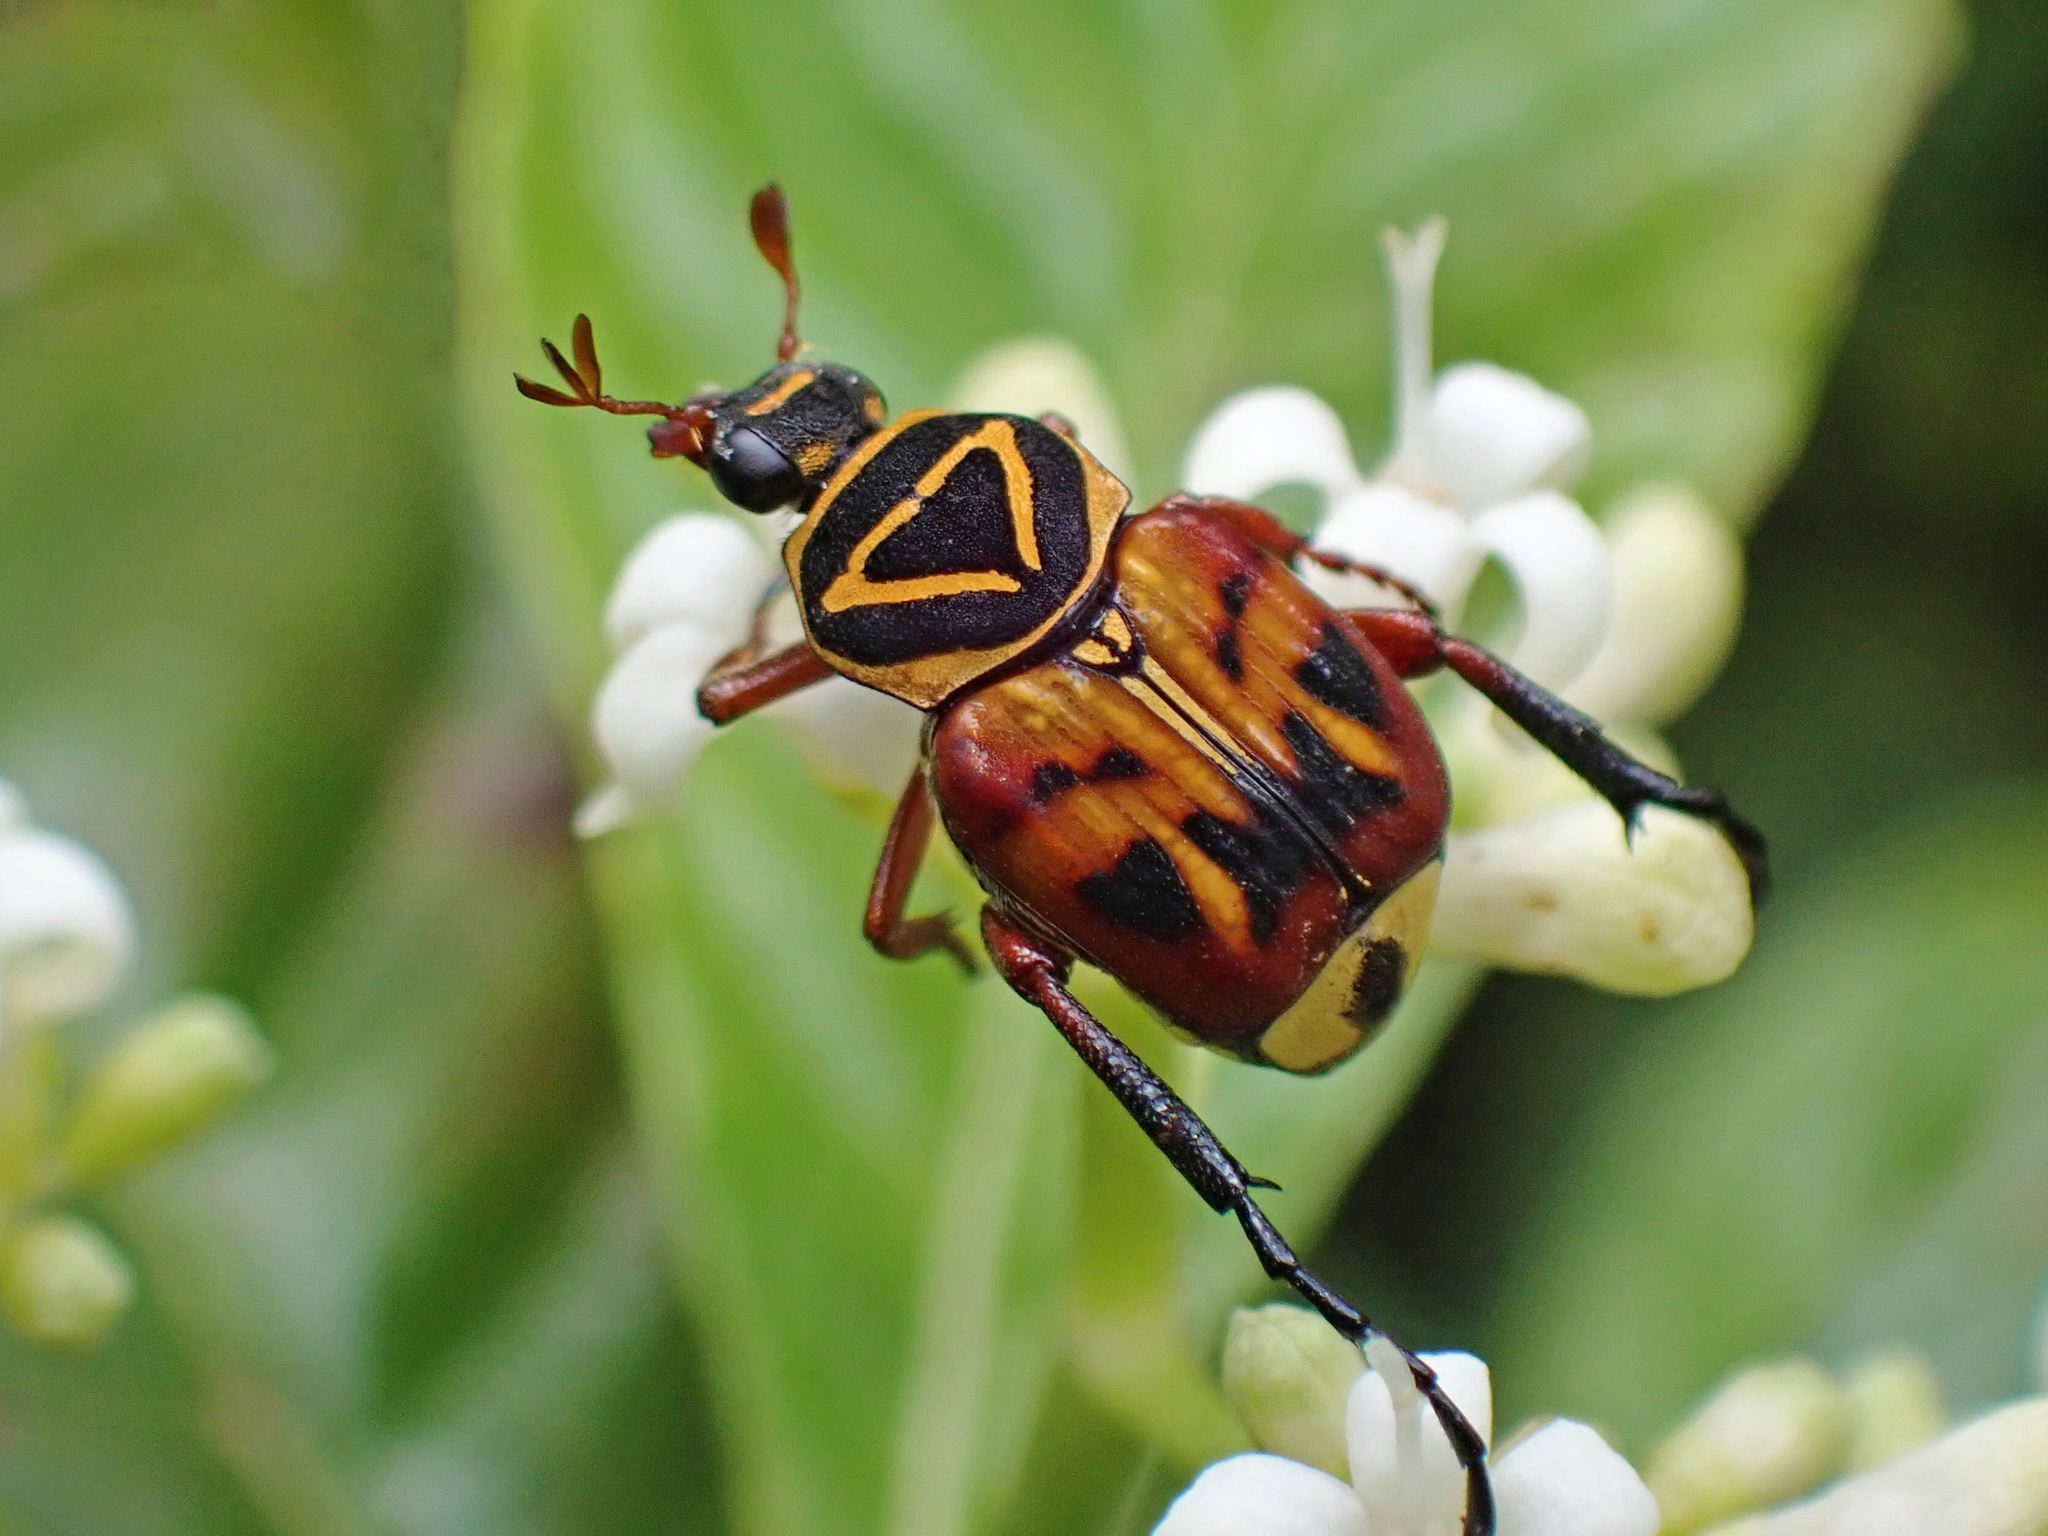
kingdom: Animalia
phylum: Arthropoda
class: Insecta
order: Coleoptera
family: Scarabaeidae
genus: Trigonopeltastes
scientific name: Trigonopeltastes delta
